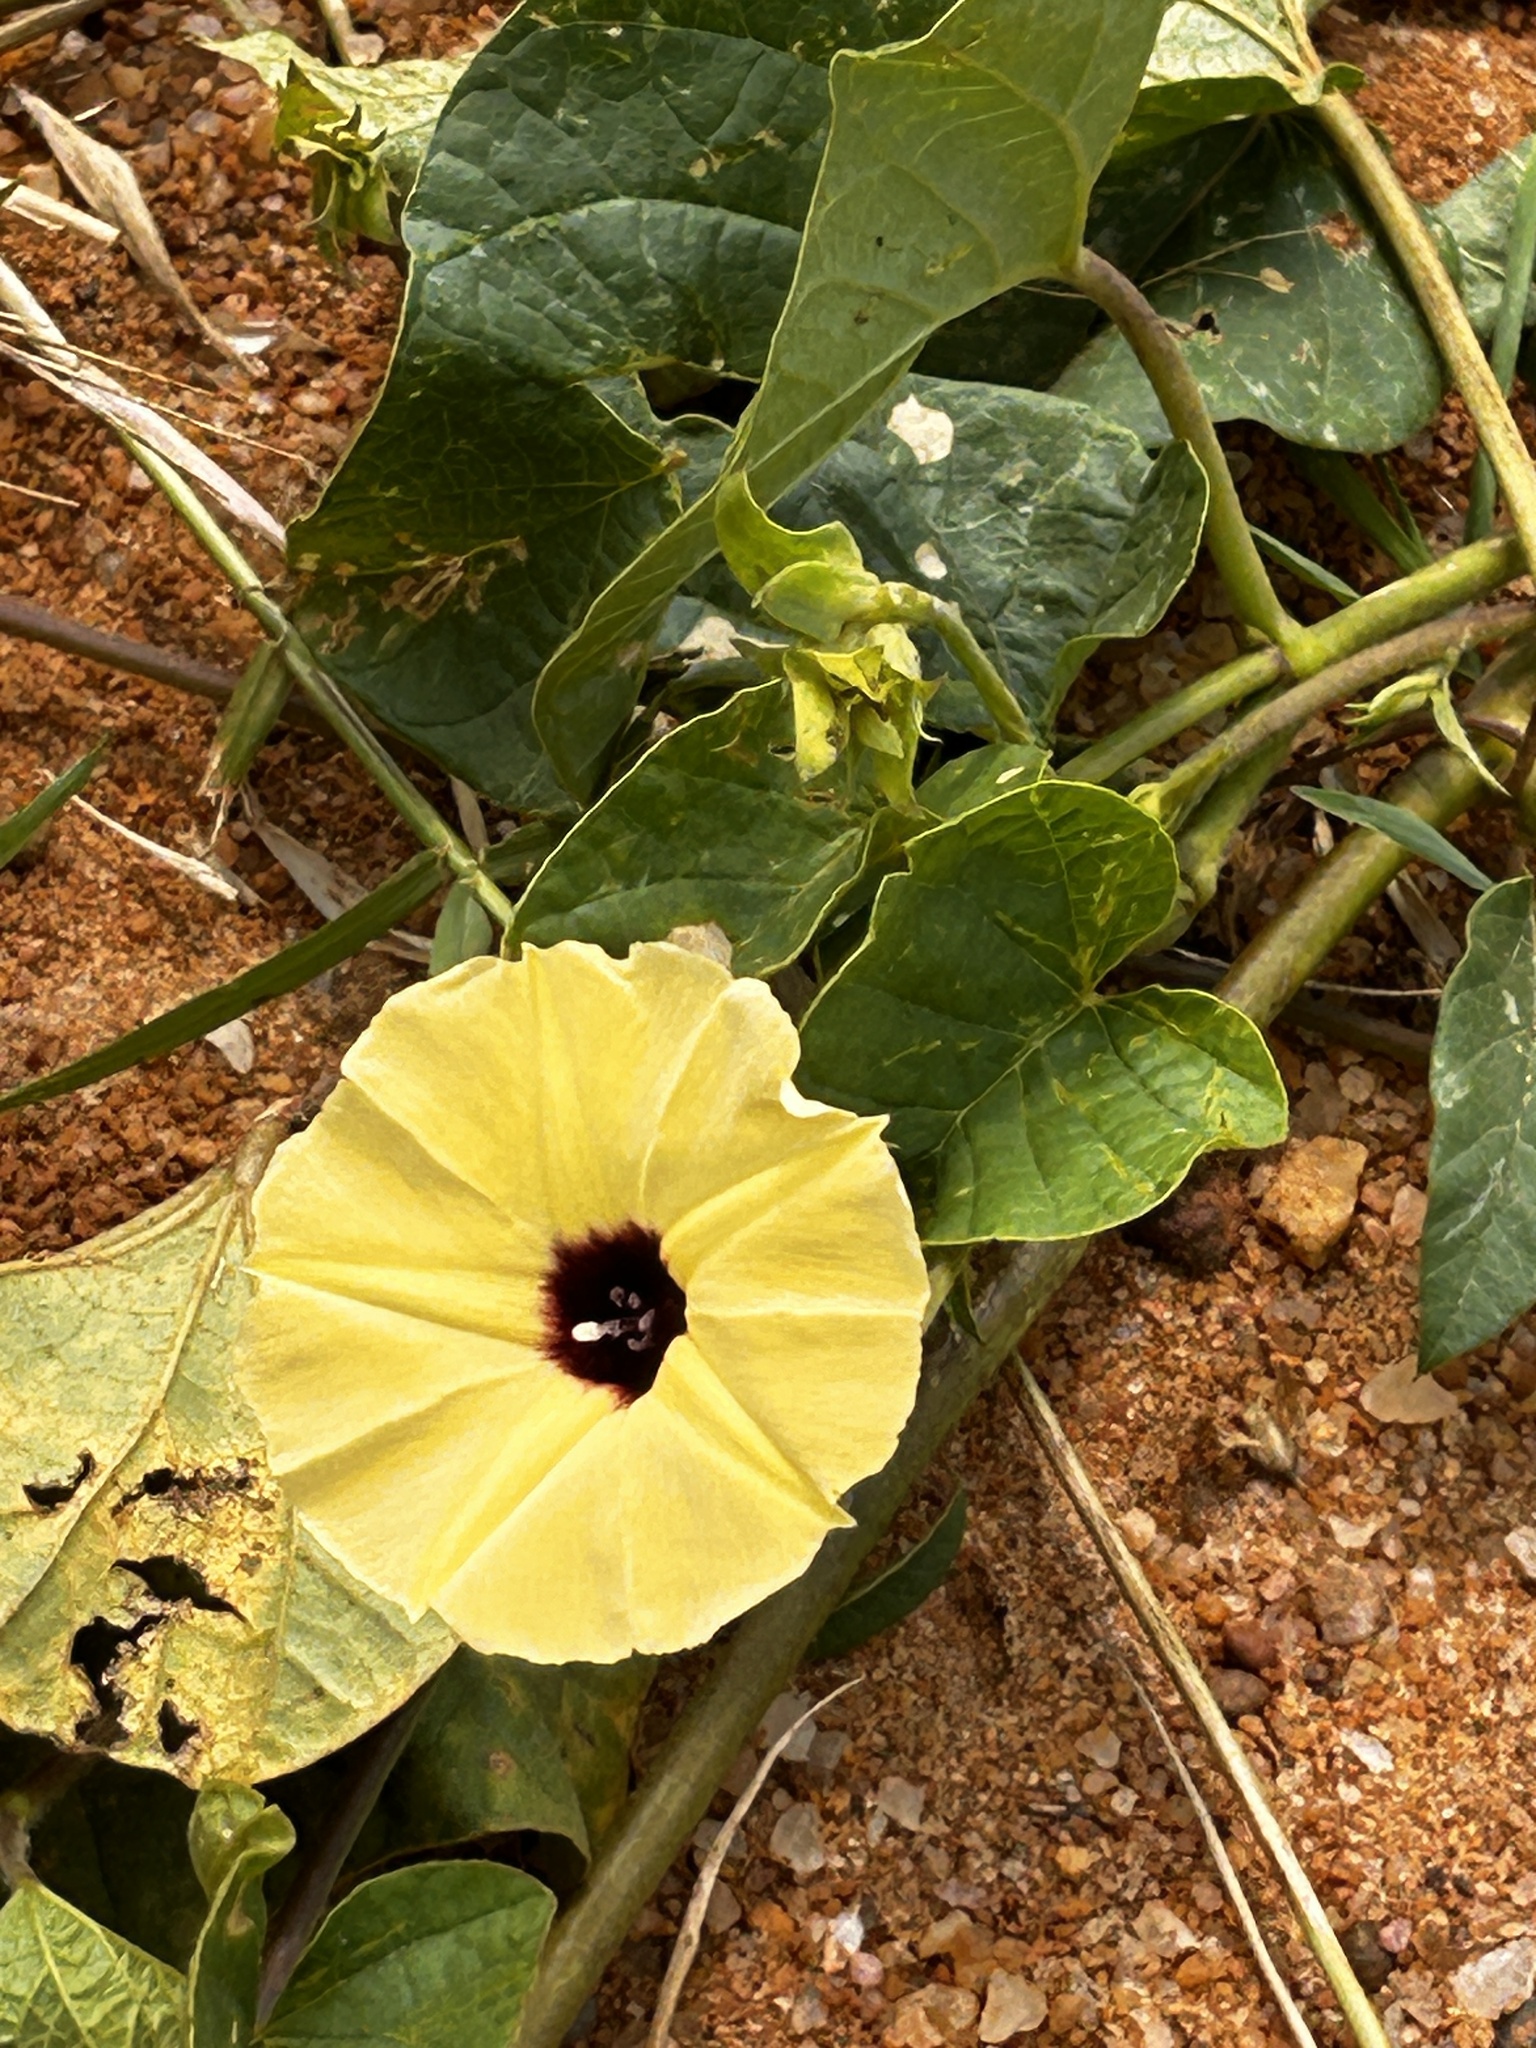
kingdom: Plantae
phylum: Tracheophyta
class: Magnoliopsida
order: Solanales
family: Convolvulaceae
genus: Hewittia
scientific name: Hewittia malabarica
